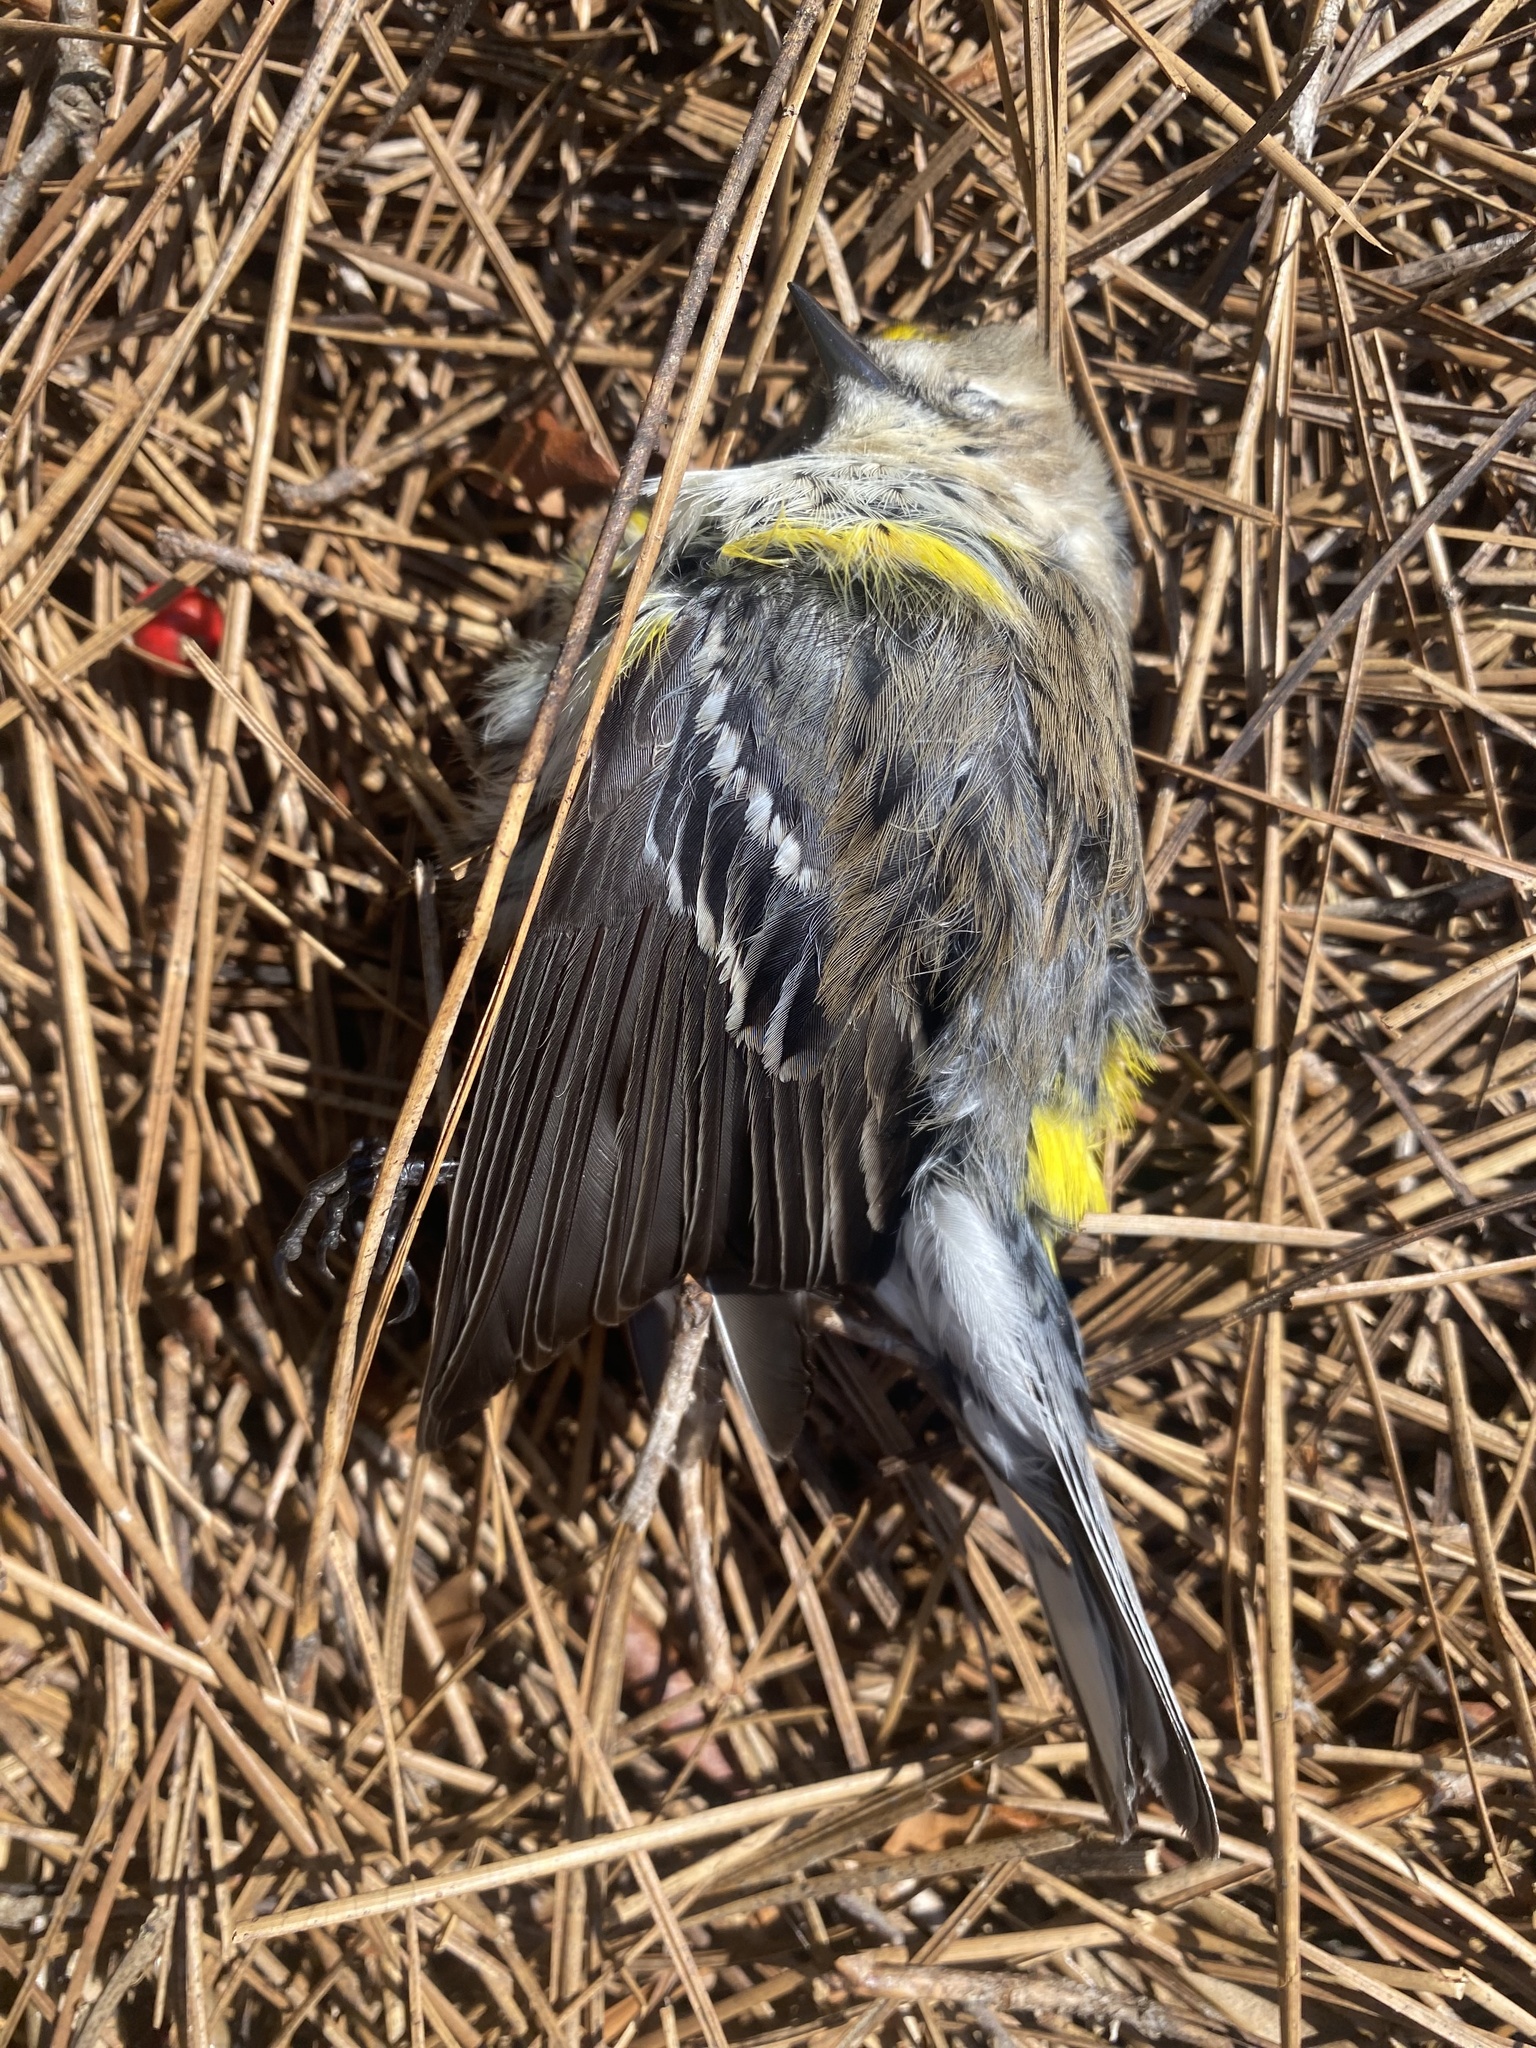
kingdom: Animalia
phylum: Chordata
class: Aves
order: Passeriformes
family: Parulidae
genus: Setophaga
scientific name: Setophaga coronata
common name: Myrtle warbler
